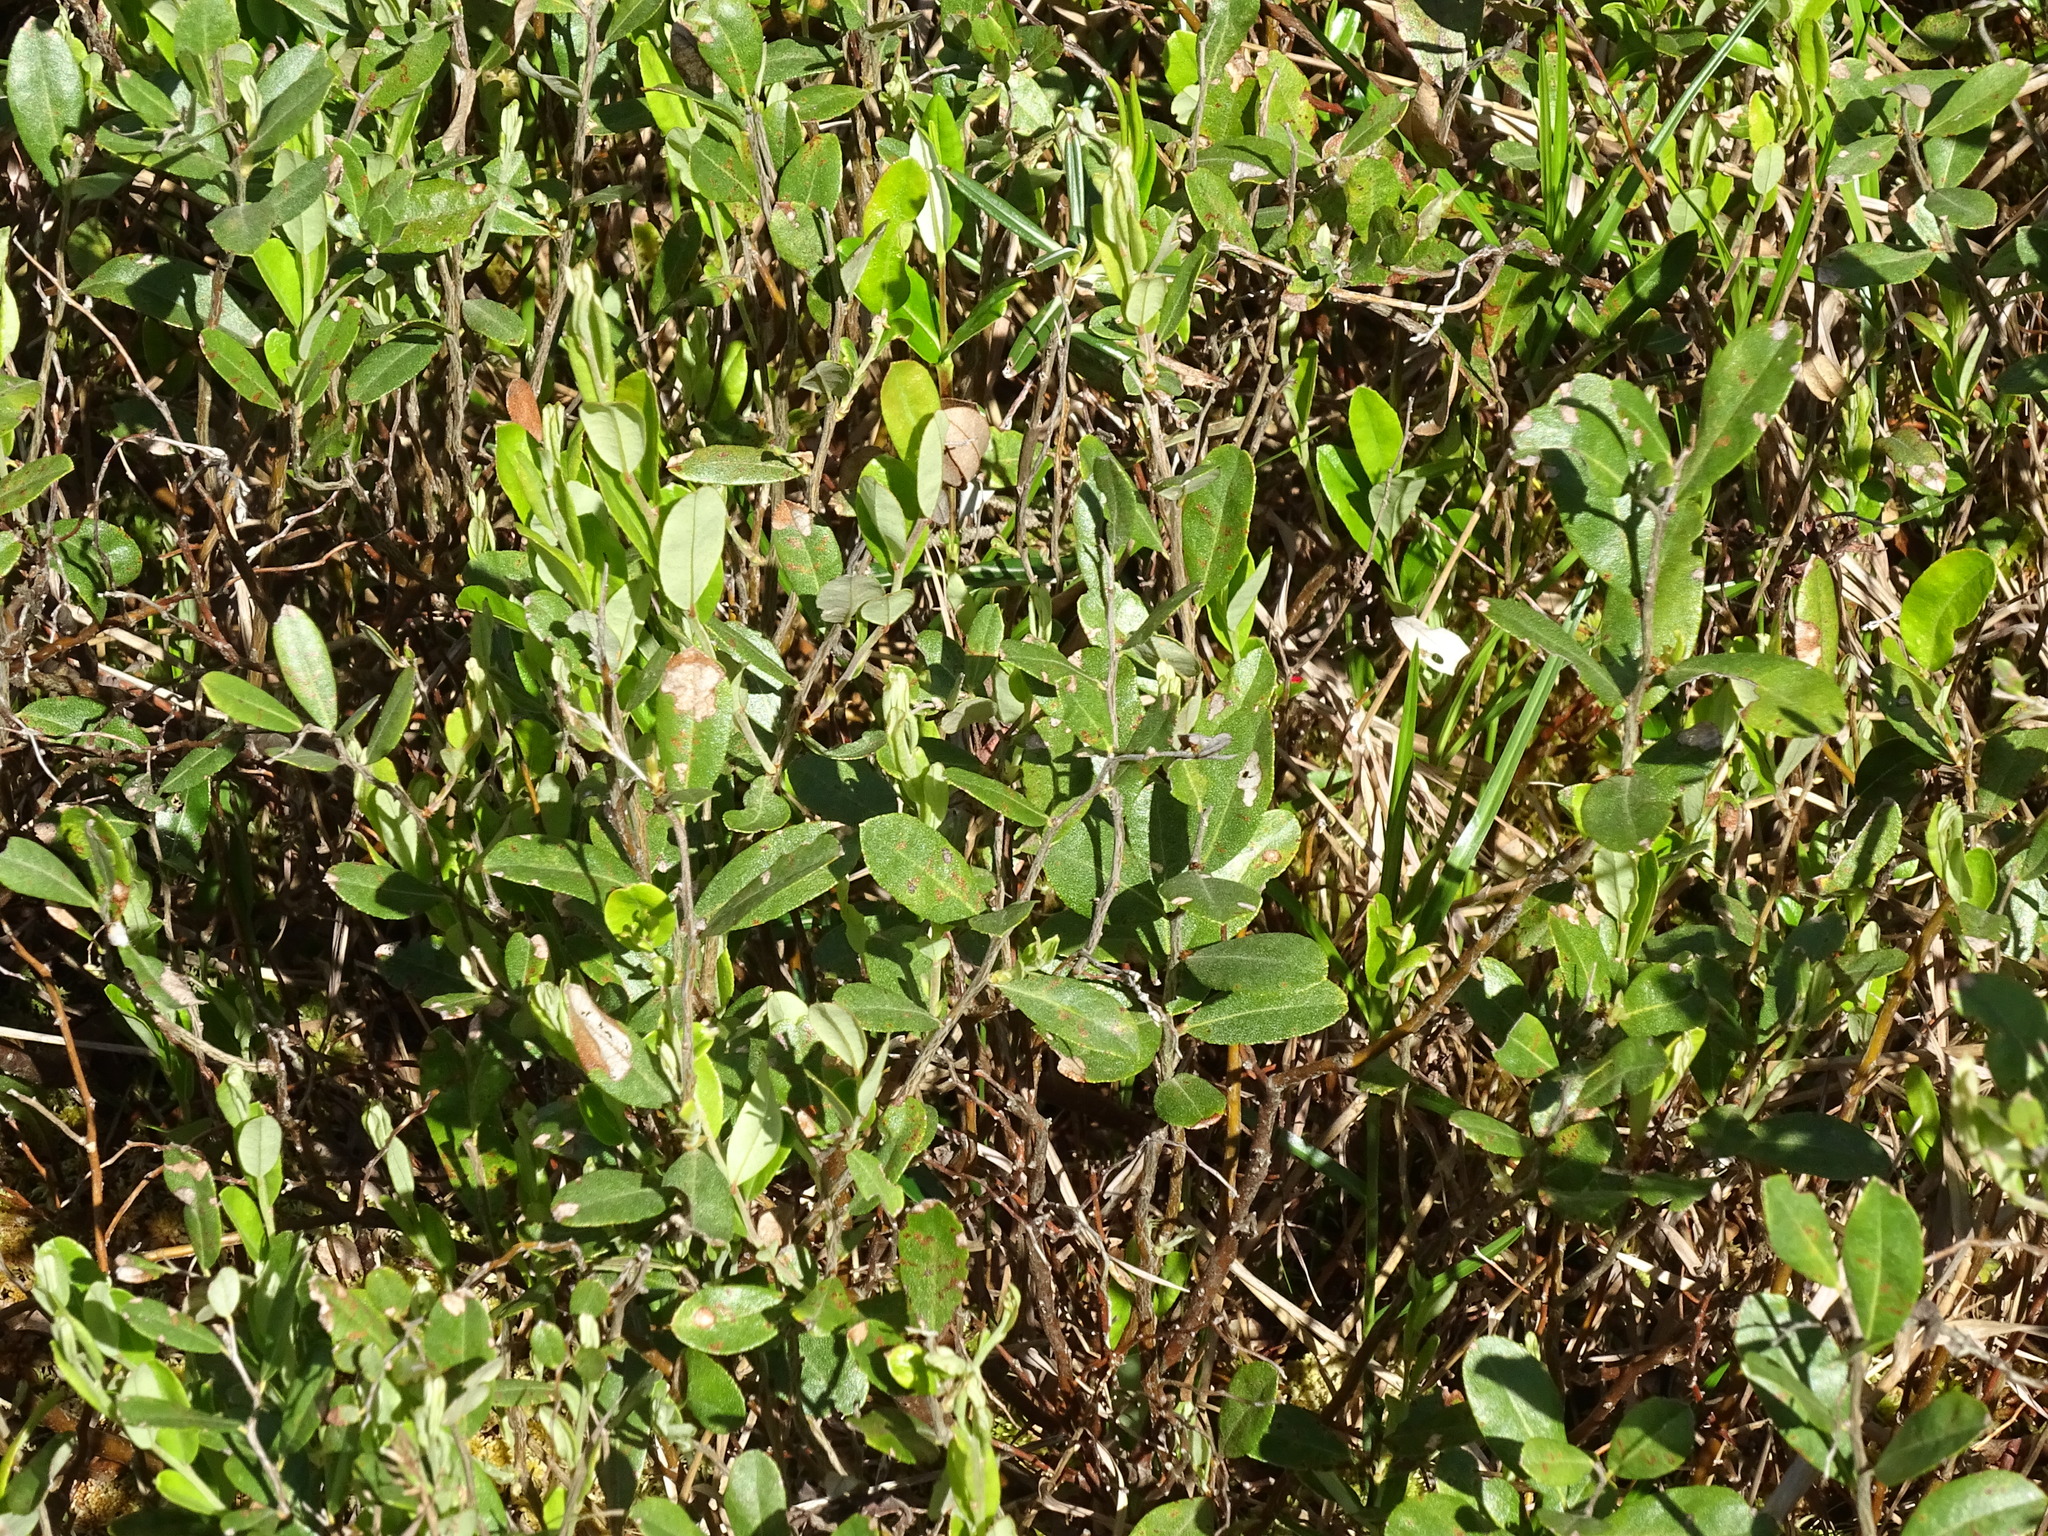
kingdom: Plantae
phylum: Tracheophyta
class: Magnoliopsida
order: Ericales
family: Ericaceae
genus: Chamaedaphne
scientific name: Chamaedaphne calyculata
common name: Leatherleaf
